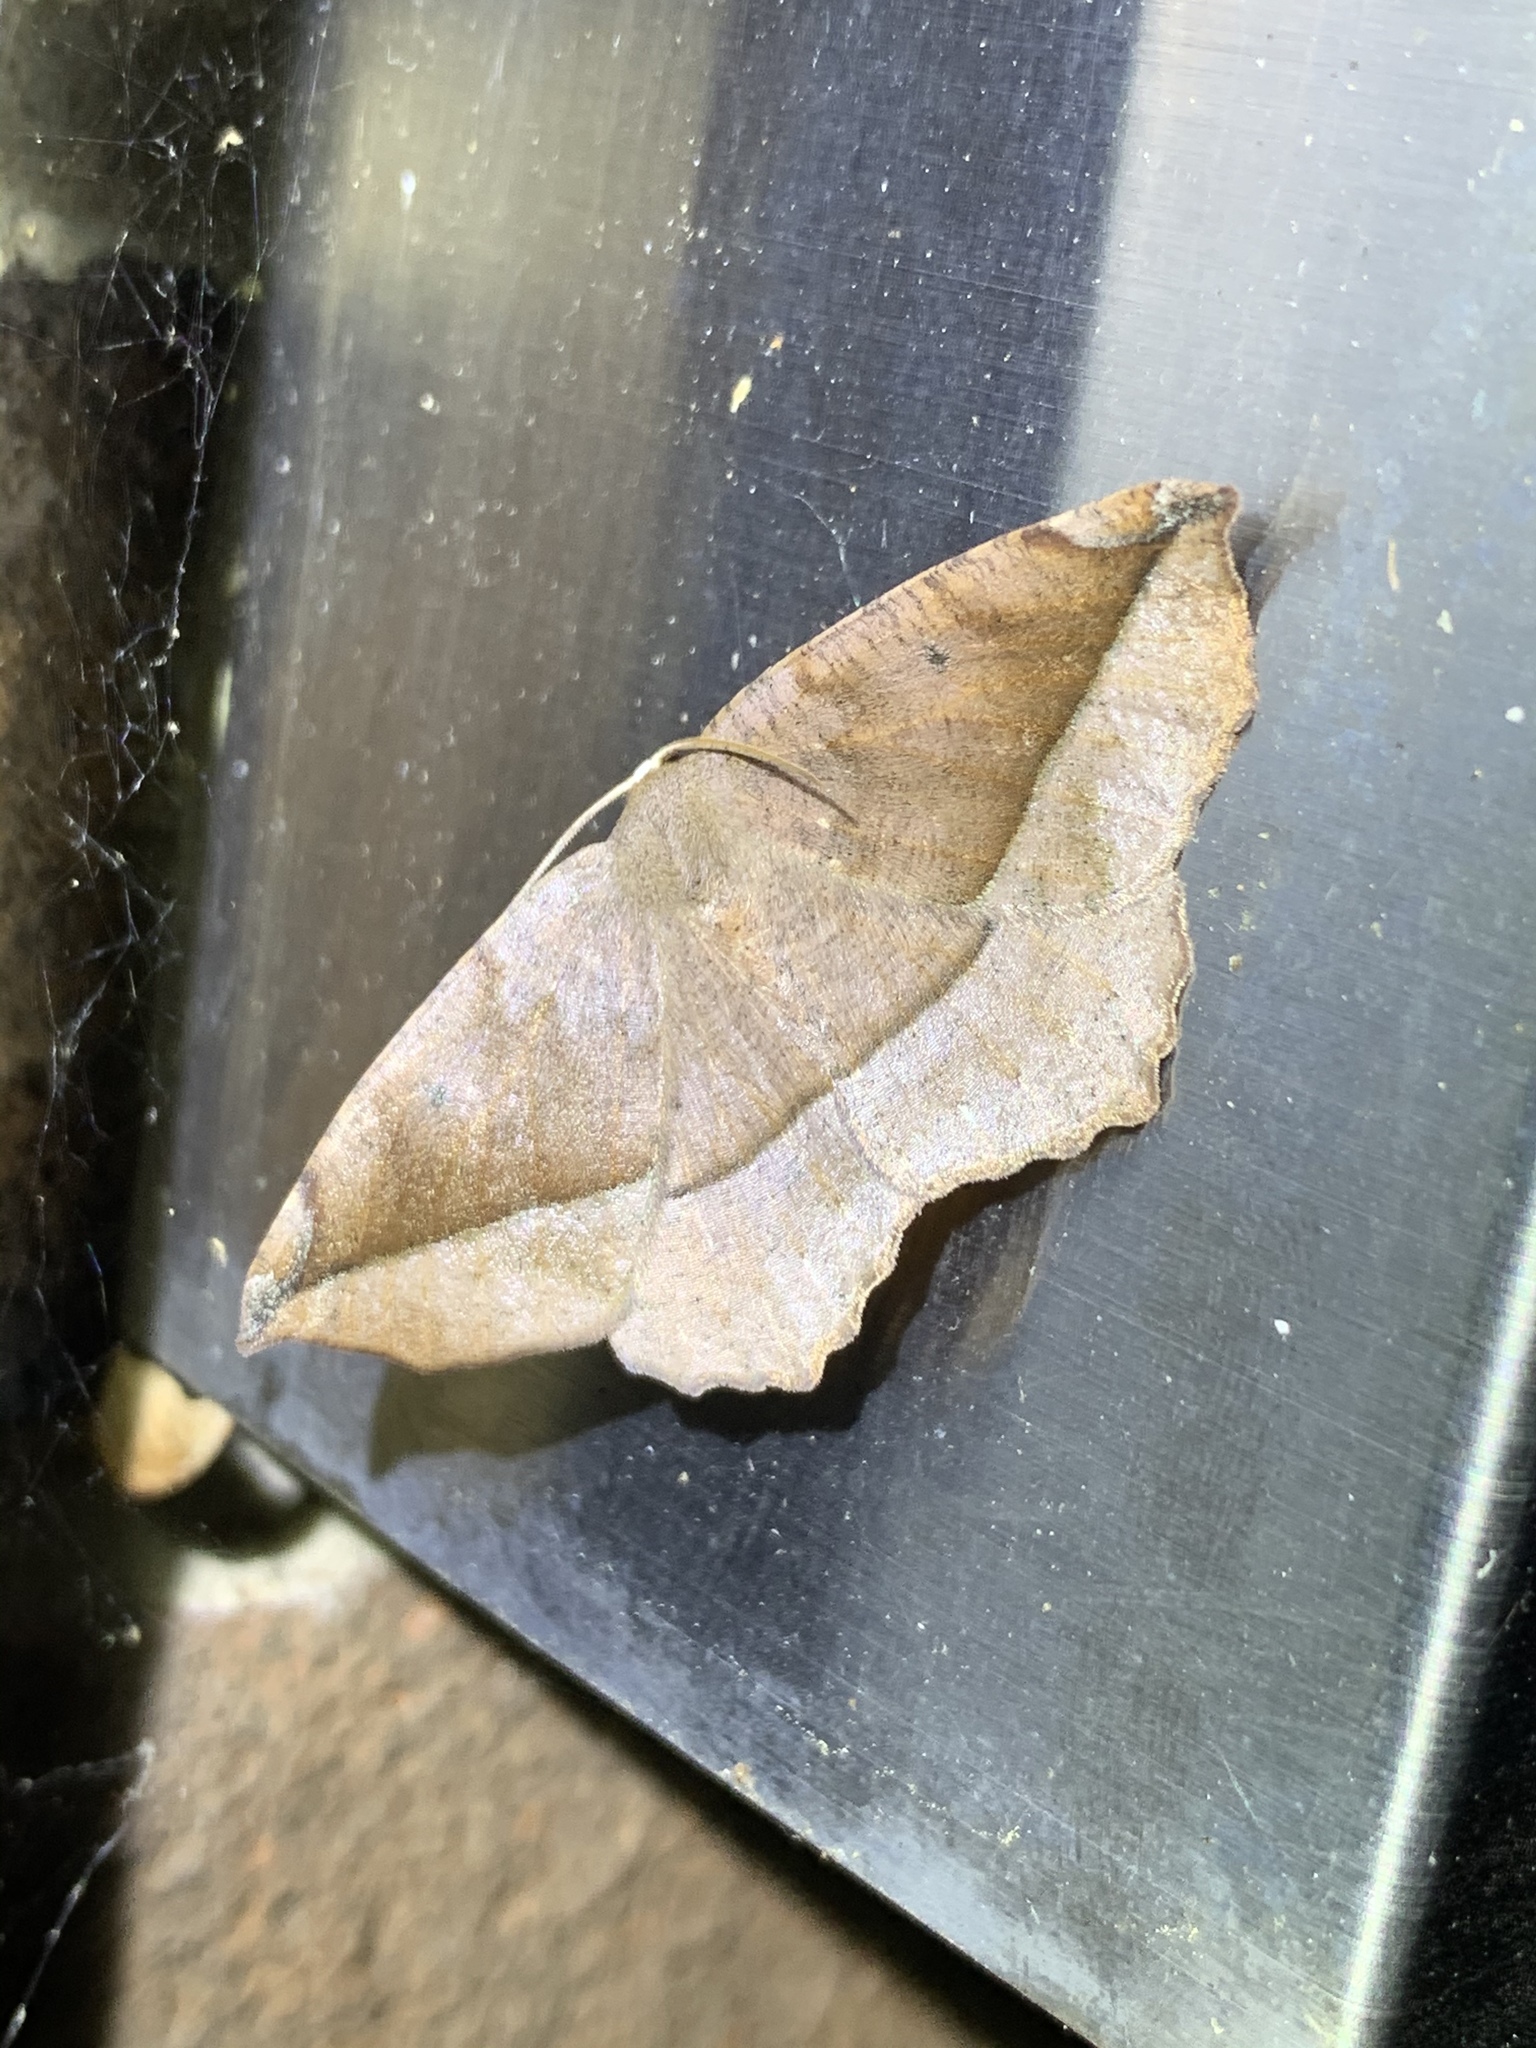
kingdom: Animalia
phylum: Arthropoda
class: Insecta
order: Lepidoptera
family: Geometridae
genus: Eutrapela
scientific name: Eutrapela clemataria
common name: Curved-toothed geometer
